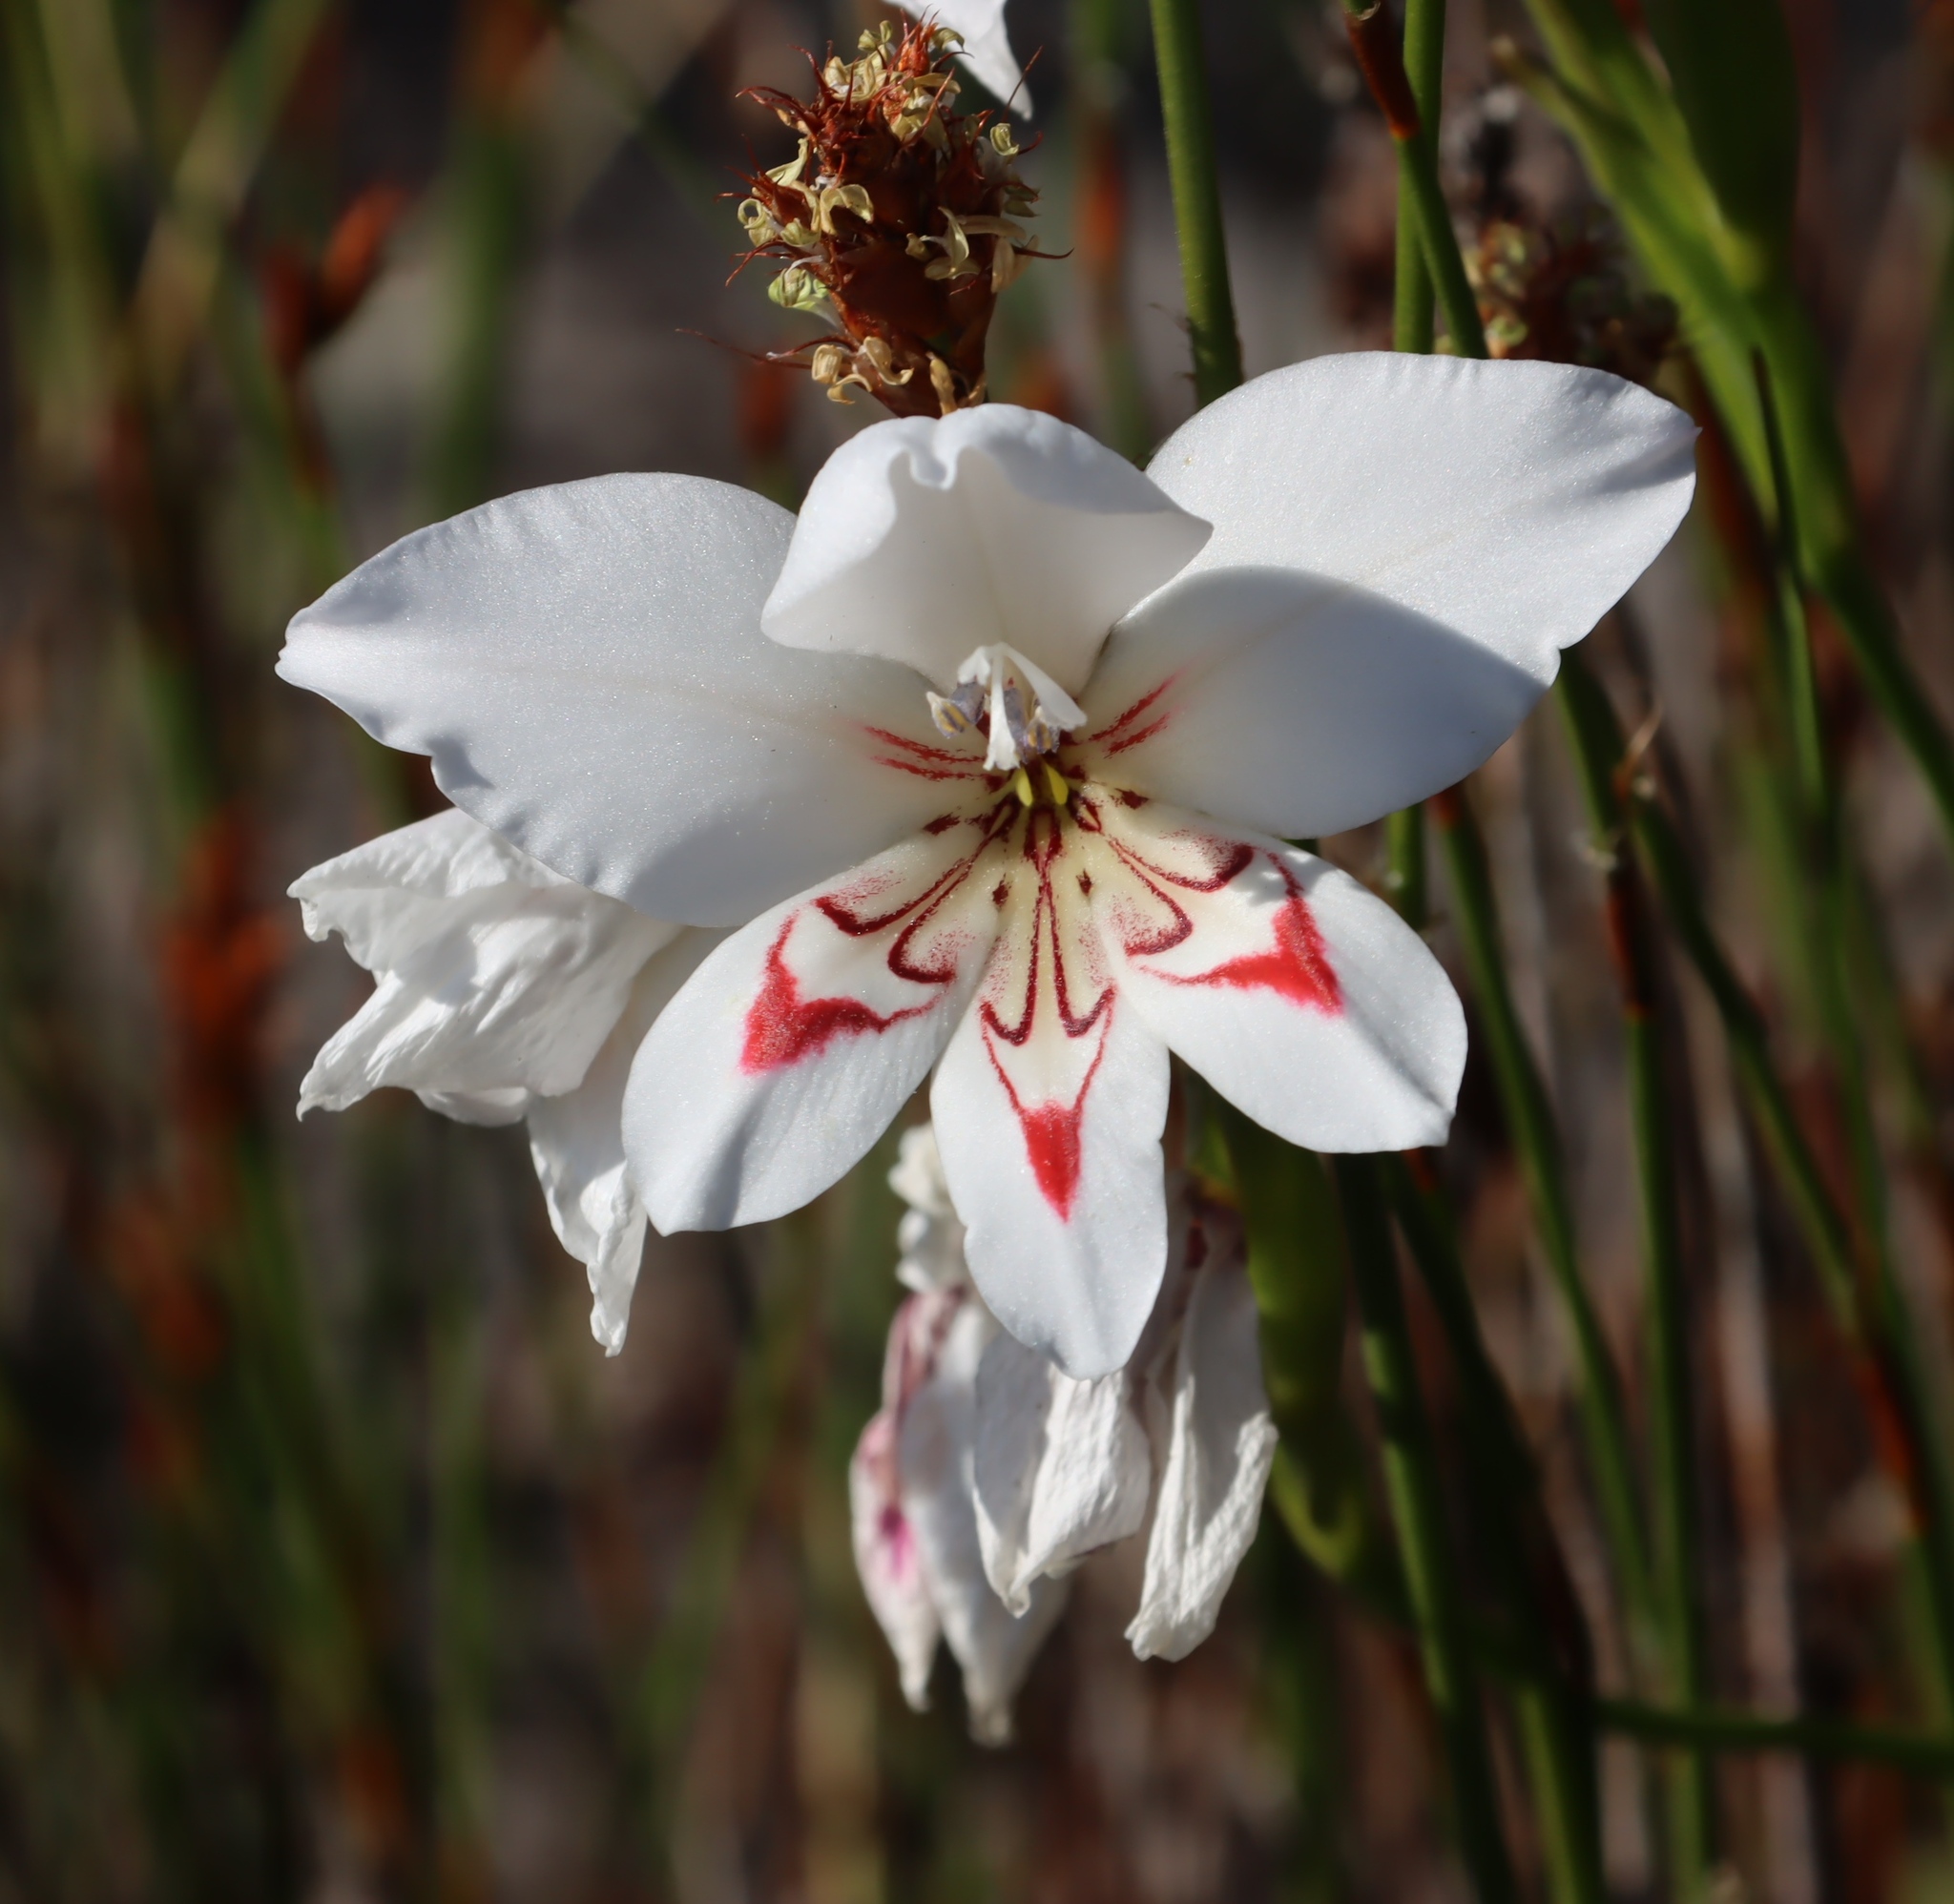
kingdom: Plantae
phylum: Tracheophyta
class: Liliopsida
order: Asparagales
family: Iridaceae
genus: Gladiolus
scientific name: Gladiolus debilis
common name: Painted-lady
